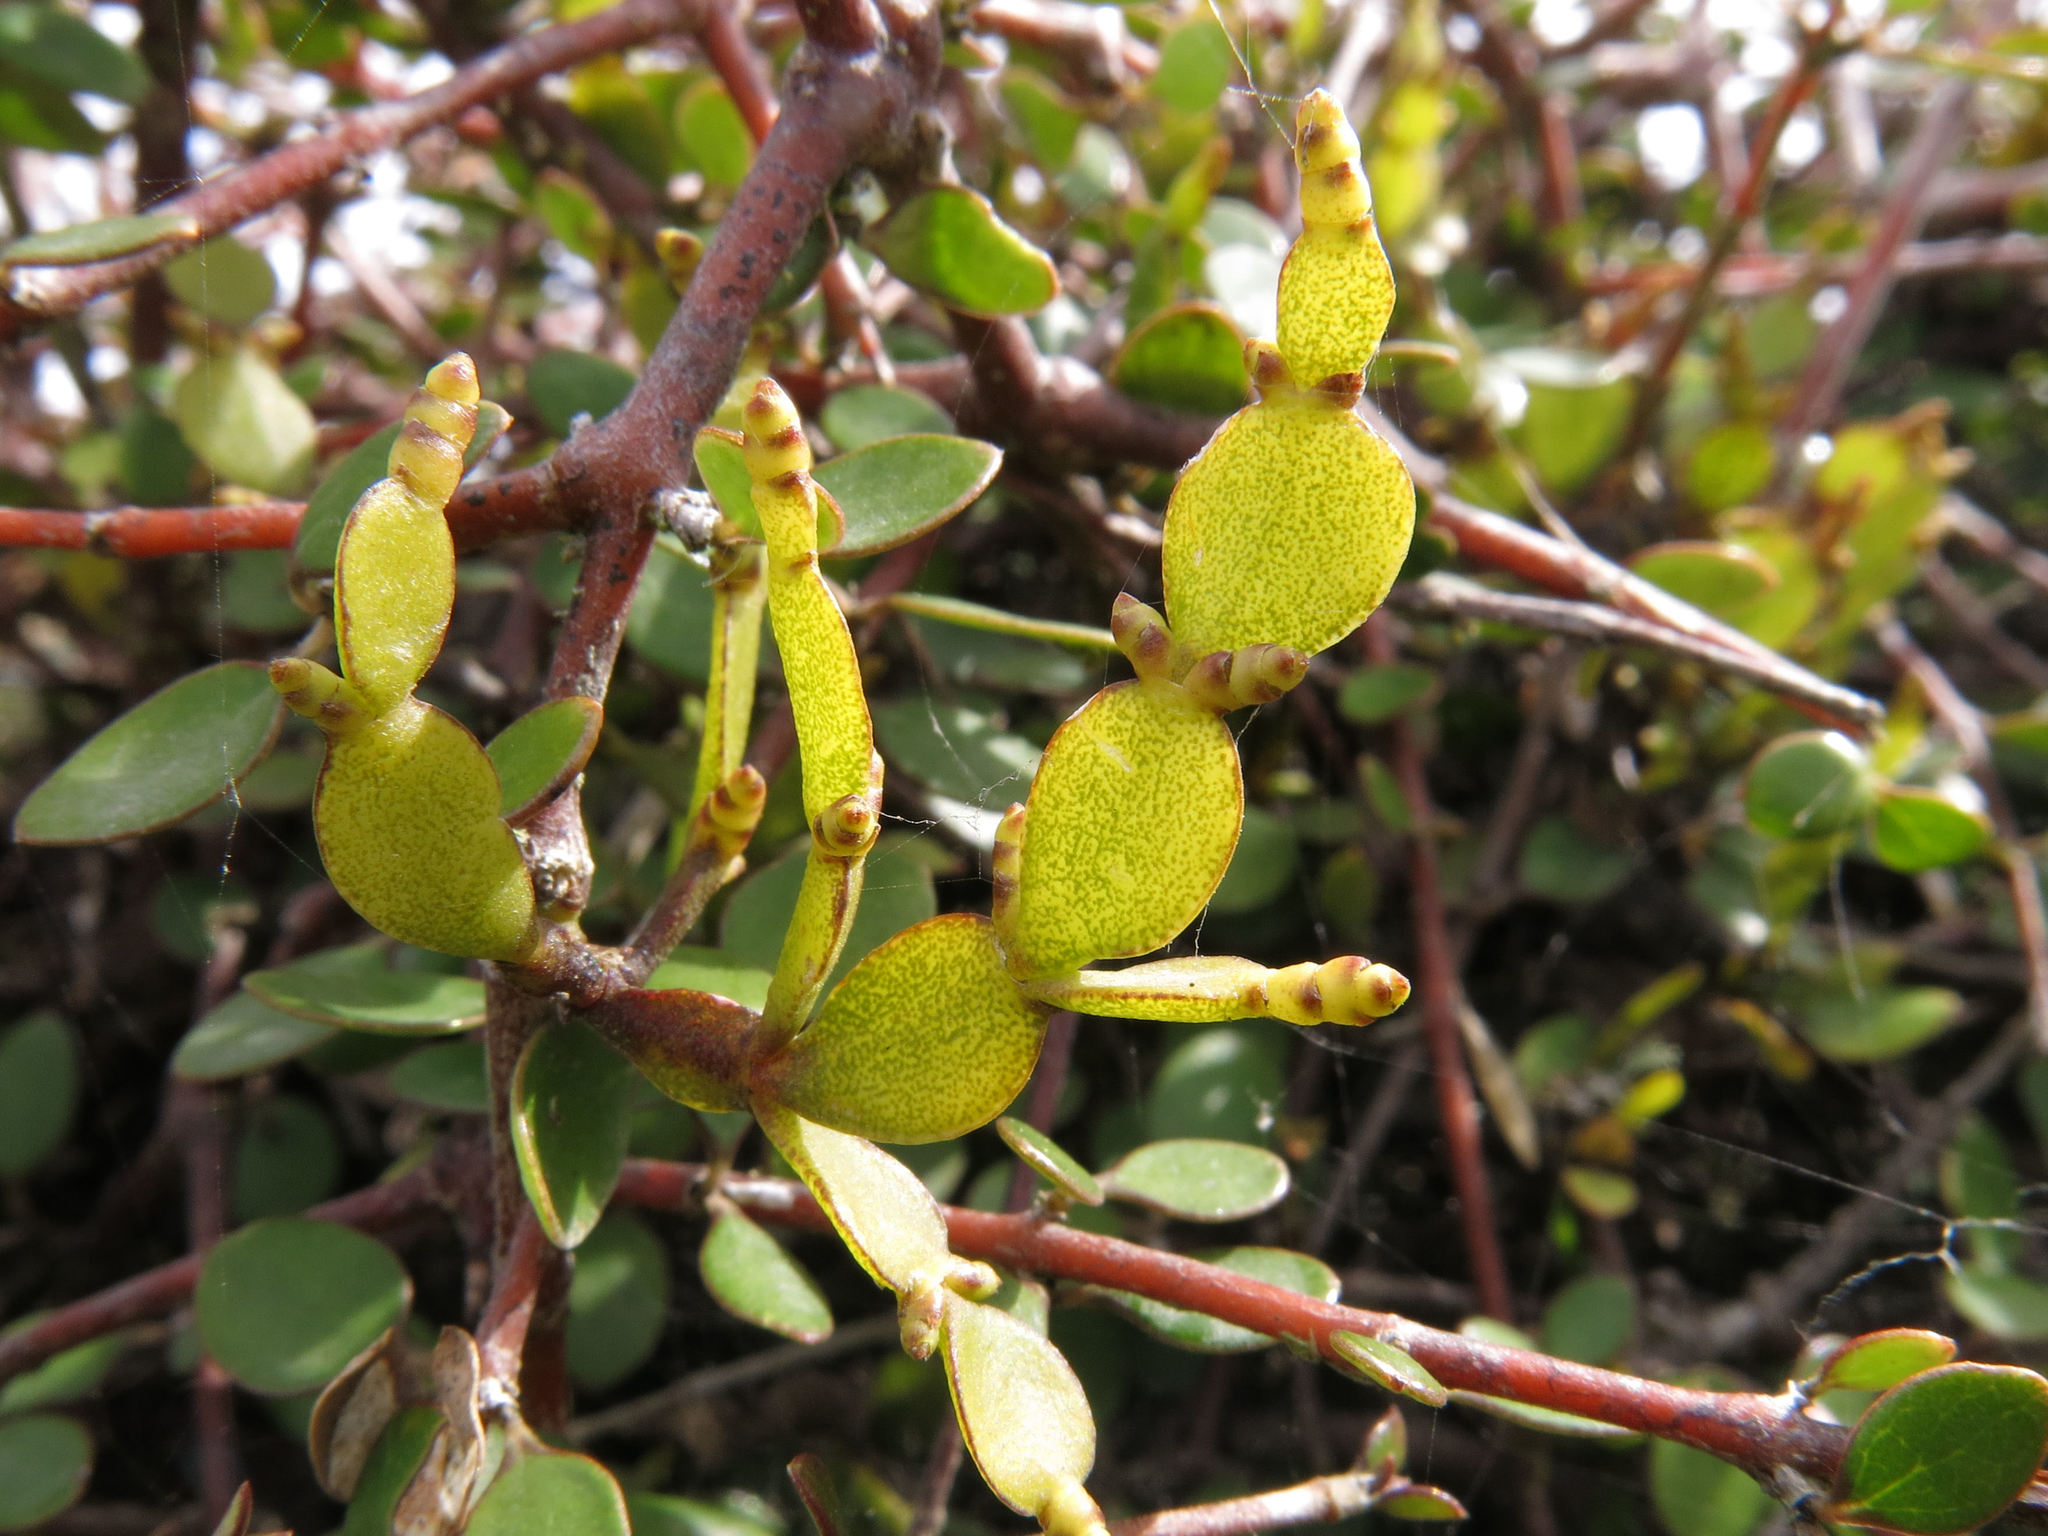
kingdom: Plantae
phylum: Tracheophyta
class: Magnoliopsida
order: Santalales
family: Viscaceae
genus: Korthalsella
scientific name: Korthalsella lindsayi
